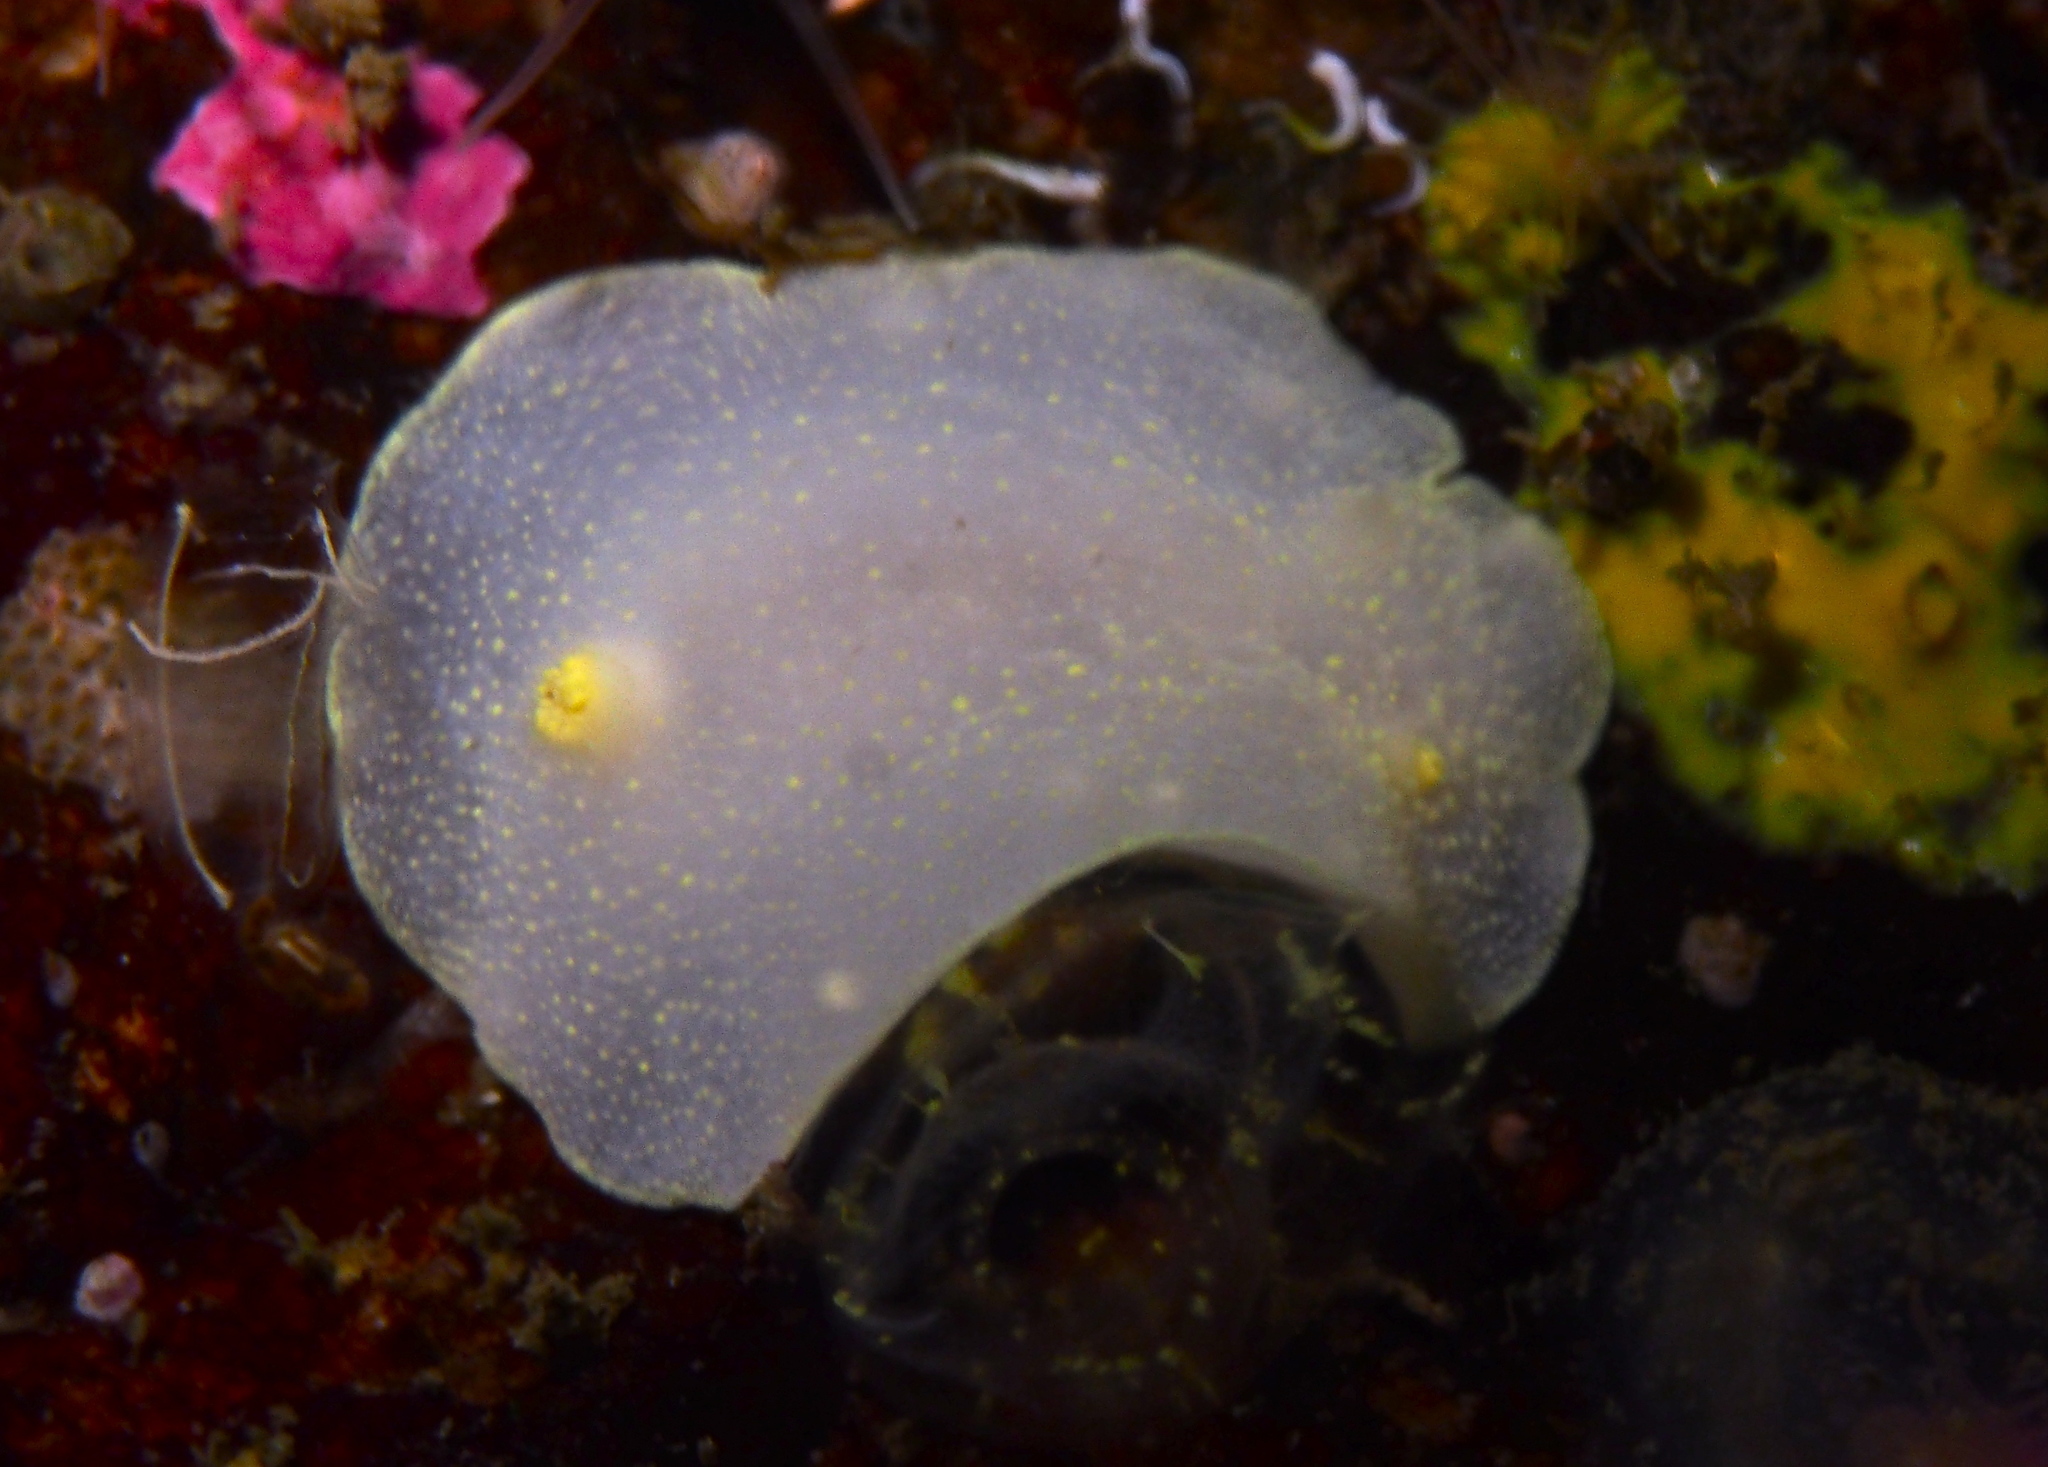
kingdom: Animalia
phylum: Mollusca
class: Gastropoda
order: Nudibranchia
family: Cadlinidae
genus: Cadlina
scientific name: Cadlina laevis
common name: White atlantic cadlina
